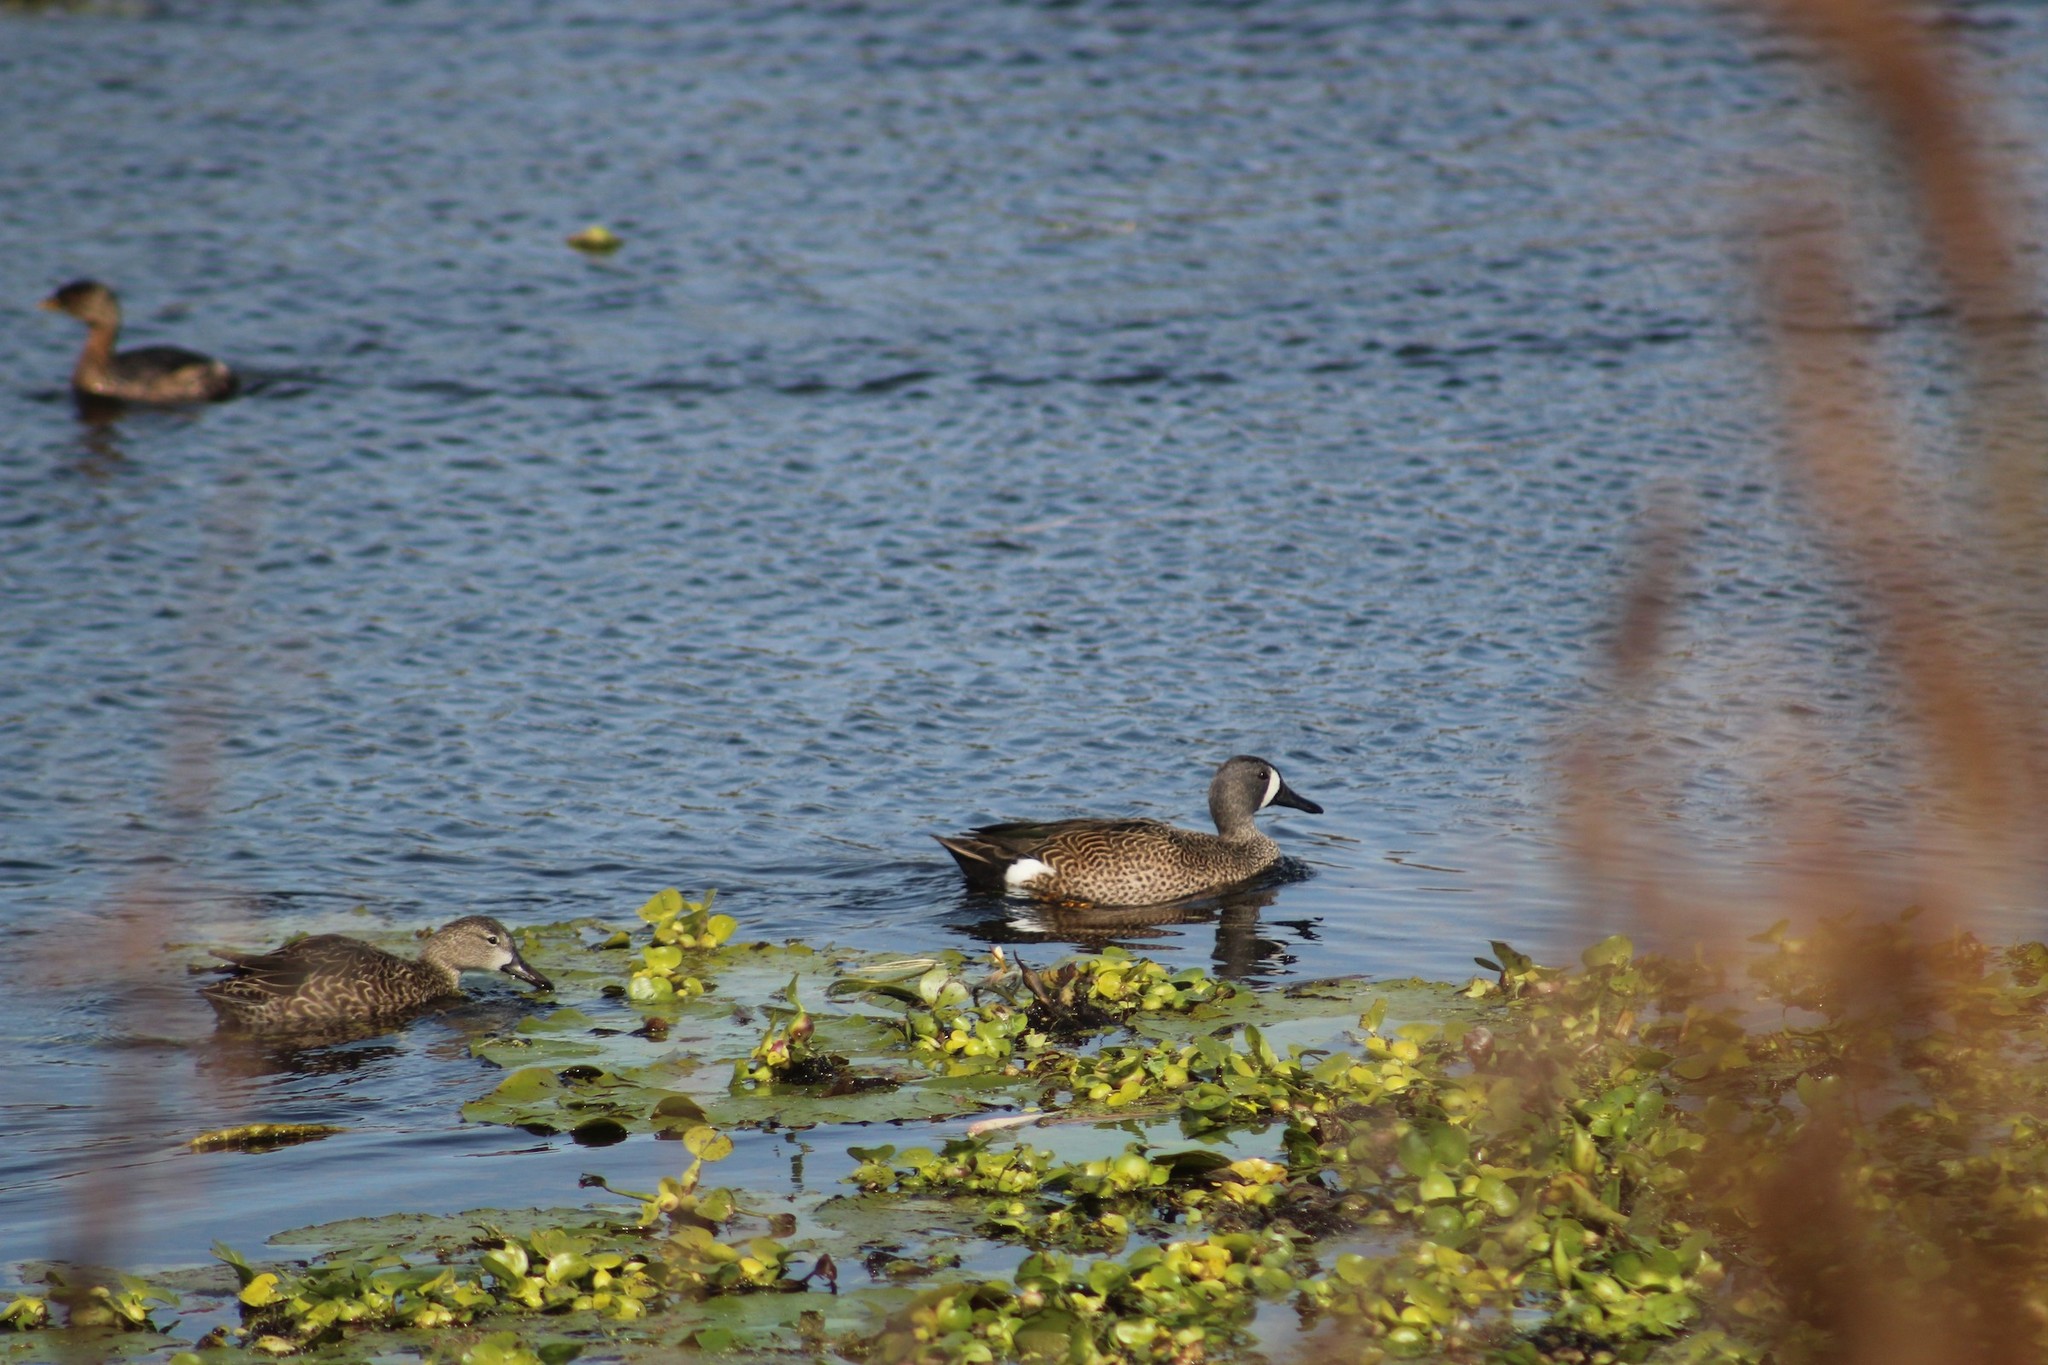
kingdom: Animalia
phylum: Chordata
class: Aves
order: Anseriformes
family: Anatidae
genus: Spatula
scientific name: Spatula discors
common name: Blue-winged teal
